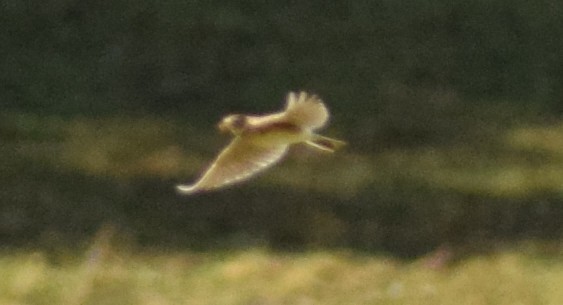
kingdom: Animalia
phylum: Chordata
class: Aves
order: Passeriformes
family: Alaudidae
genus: Alauda
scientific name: Alauda arvensis
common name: Eurasian skylark
